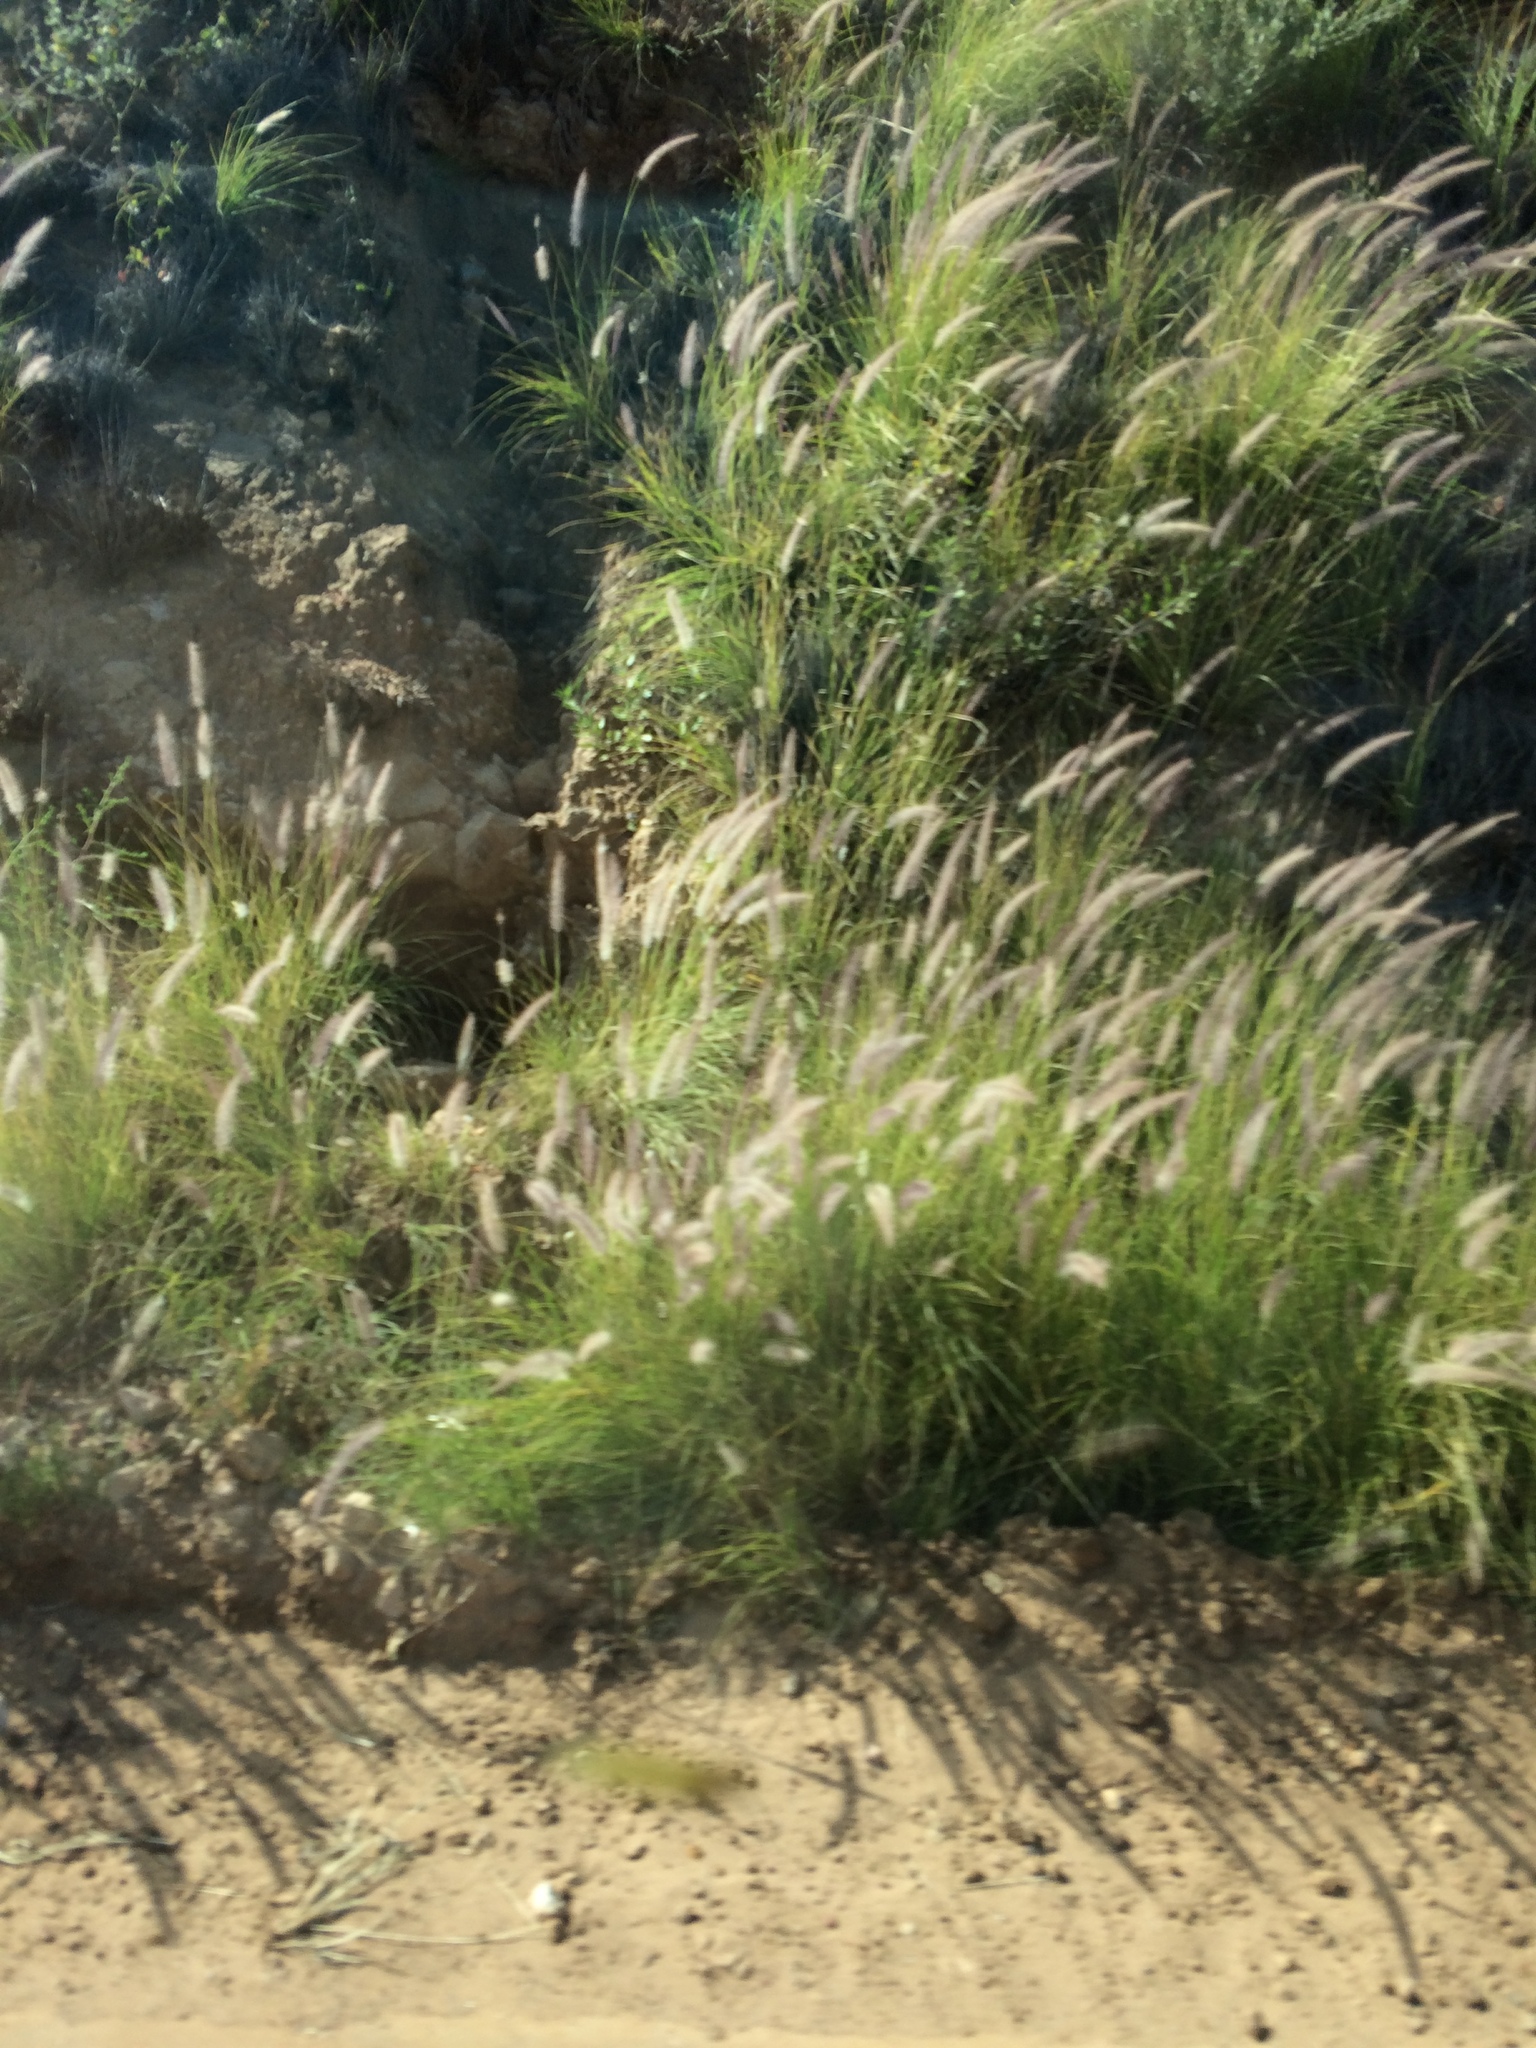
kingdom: Plantae
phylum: Tracheophyta
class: Liliopsida
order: Poales
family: Poaceae
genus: Cenchrus
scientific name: Cenchrus setaceus
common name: Crimson fountaingrass
